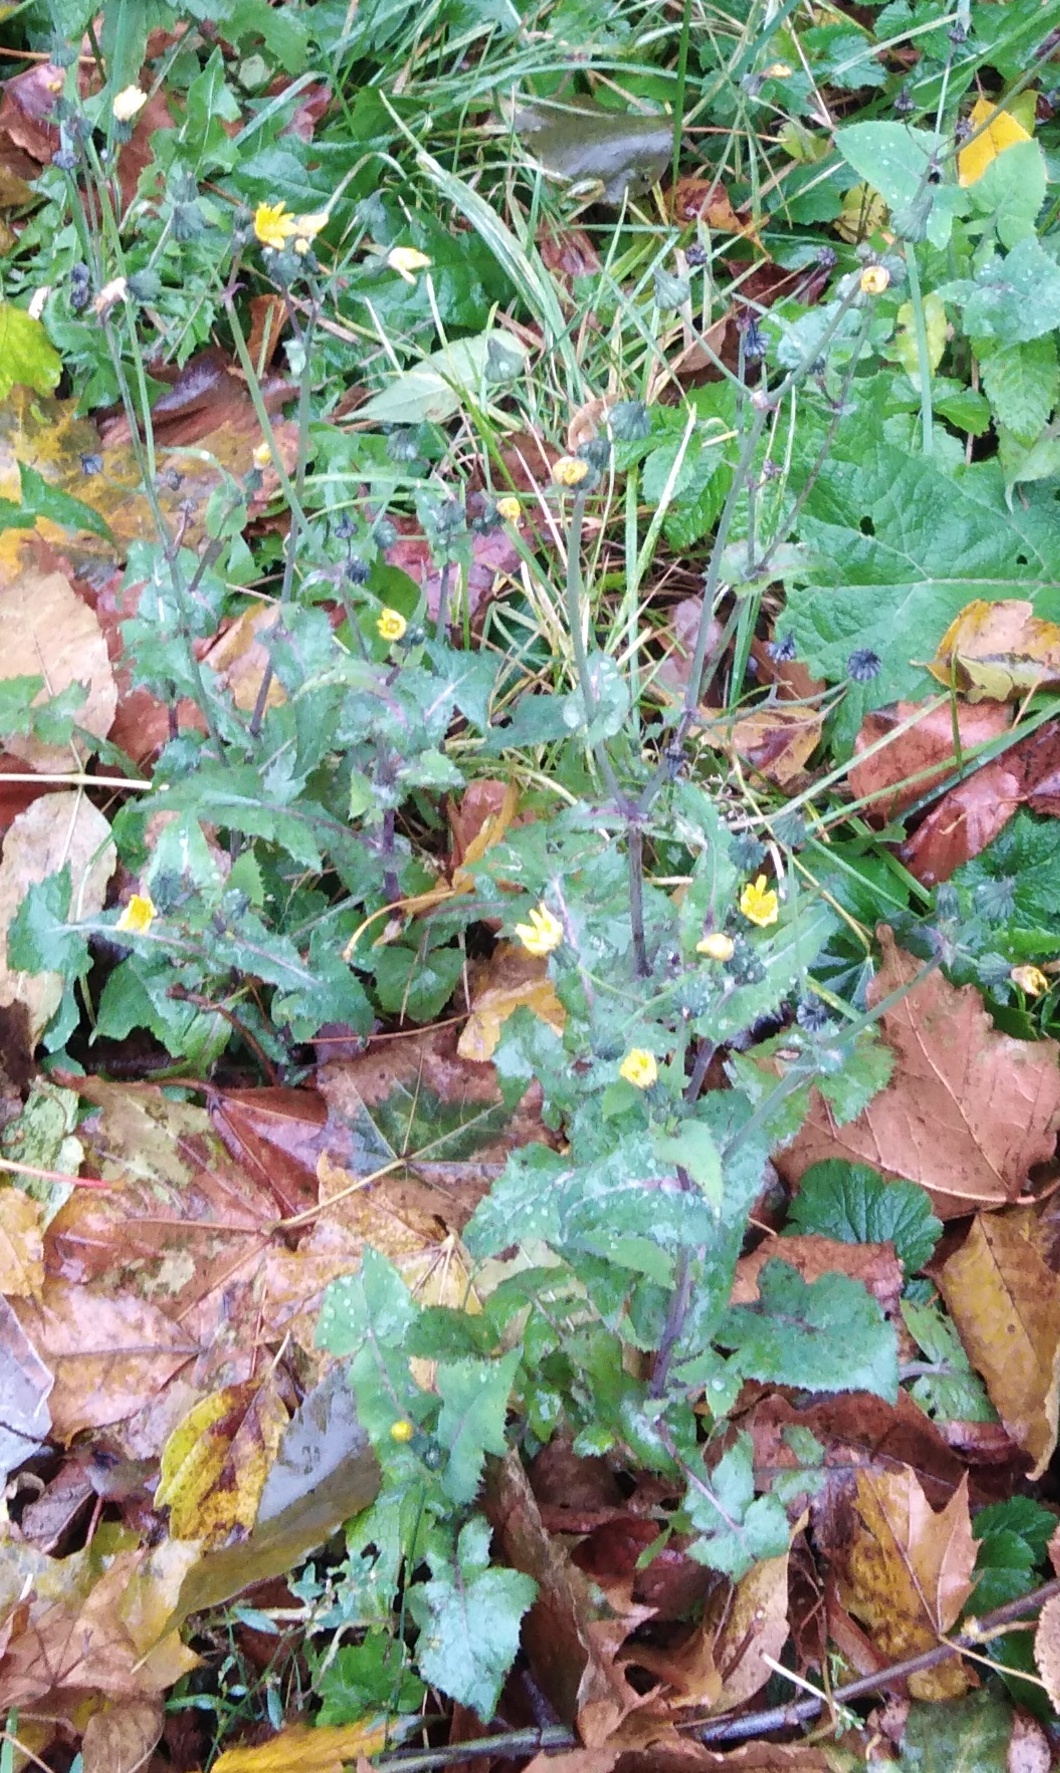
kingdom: Plantae
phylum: Tracheophyta
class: Magnoliopsida
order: Asterales
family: Asteraceae
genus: Sonchus
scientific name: Sonchus oleraceus
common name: Common sowthistle
